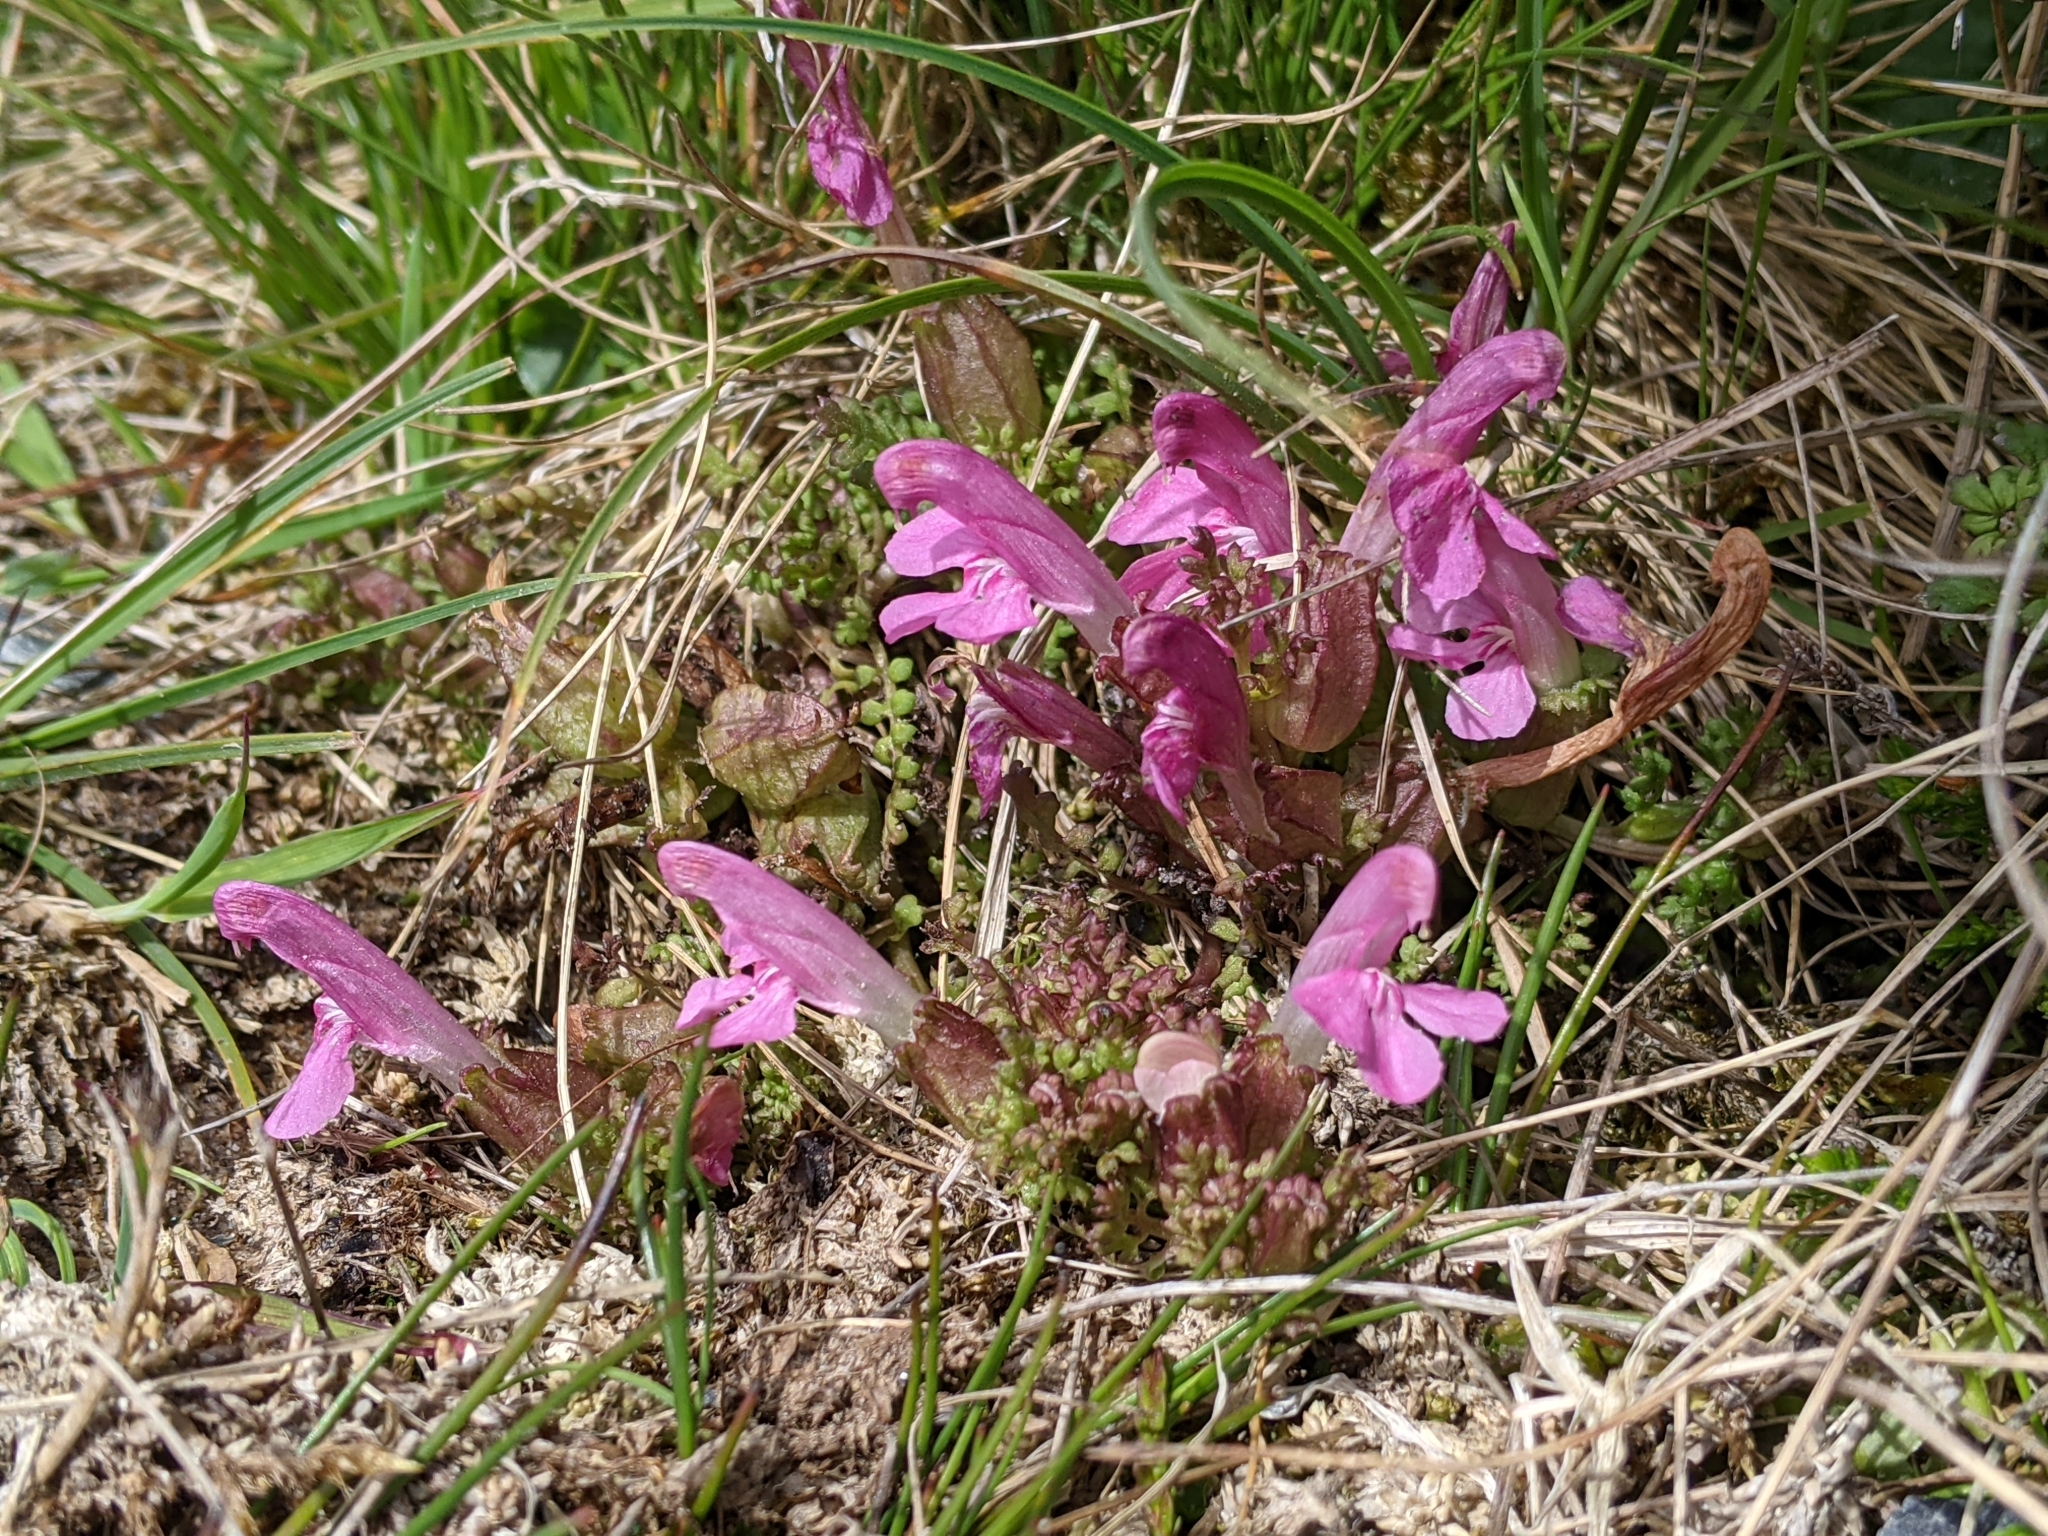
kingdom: Plantae
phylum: Tracheophyta
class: Magnoliopsida
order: Lamiales
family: Orobanchaceae
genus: Pedicularis
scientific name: Pedicularis sylvatica
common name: Lousewort
